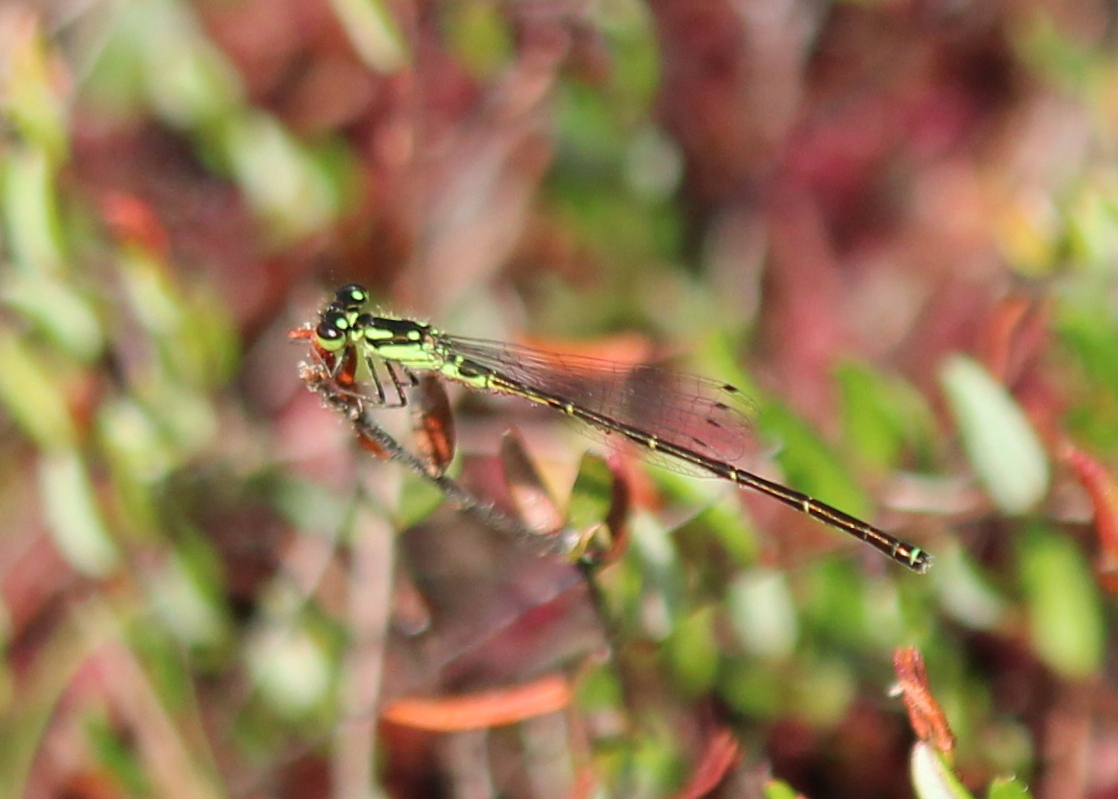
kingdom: Animalia
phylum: Arthropoda
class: Insecta
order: Odonata
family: Coenagrionidae
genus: Ischnura
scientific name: Ischnura posita
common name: Fragile forktail
